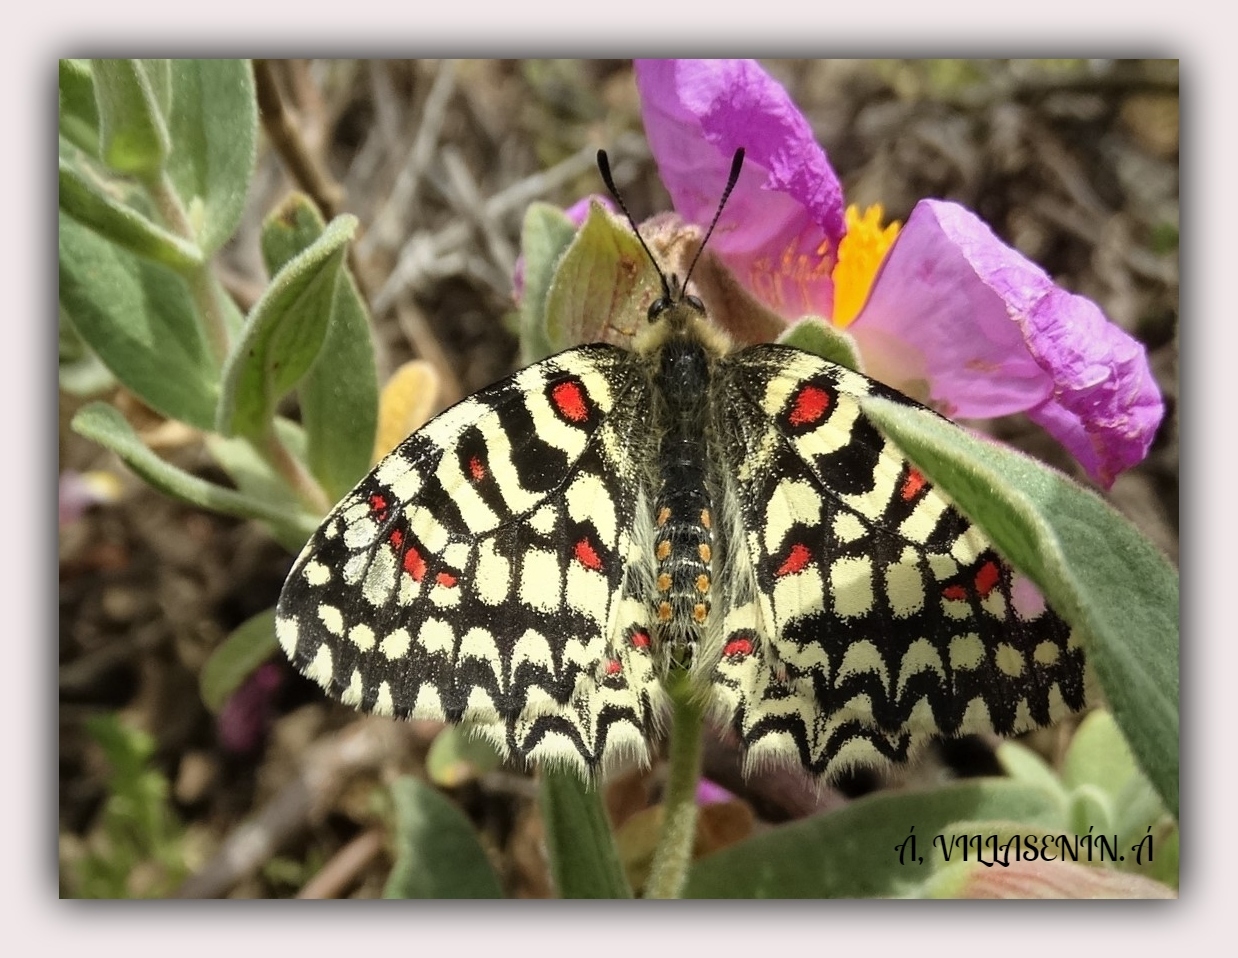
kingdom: Animalia
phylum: Arthropoda
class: Insecta
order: Lepidoptera
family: Papilionidae
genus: Zerynthia
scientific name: Zerynthia rumina
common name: Spanish festoon
